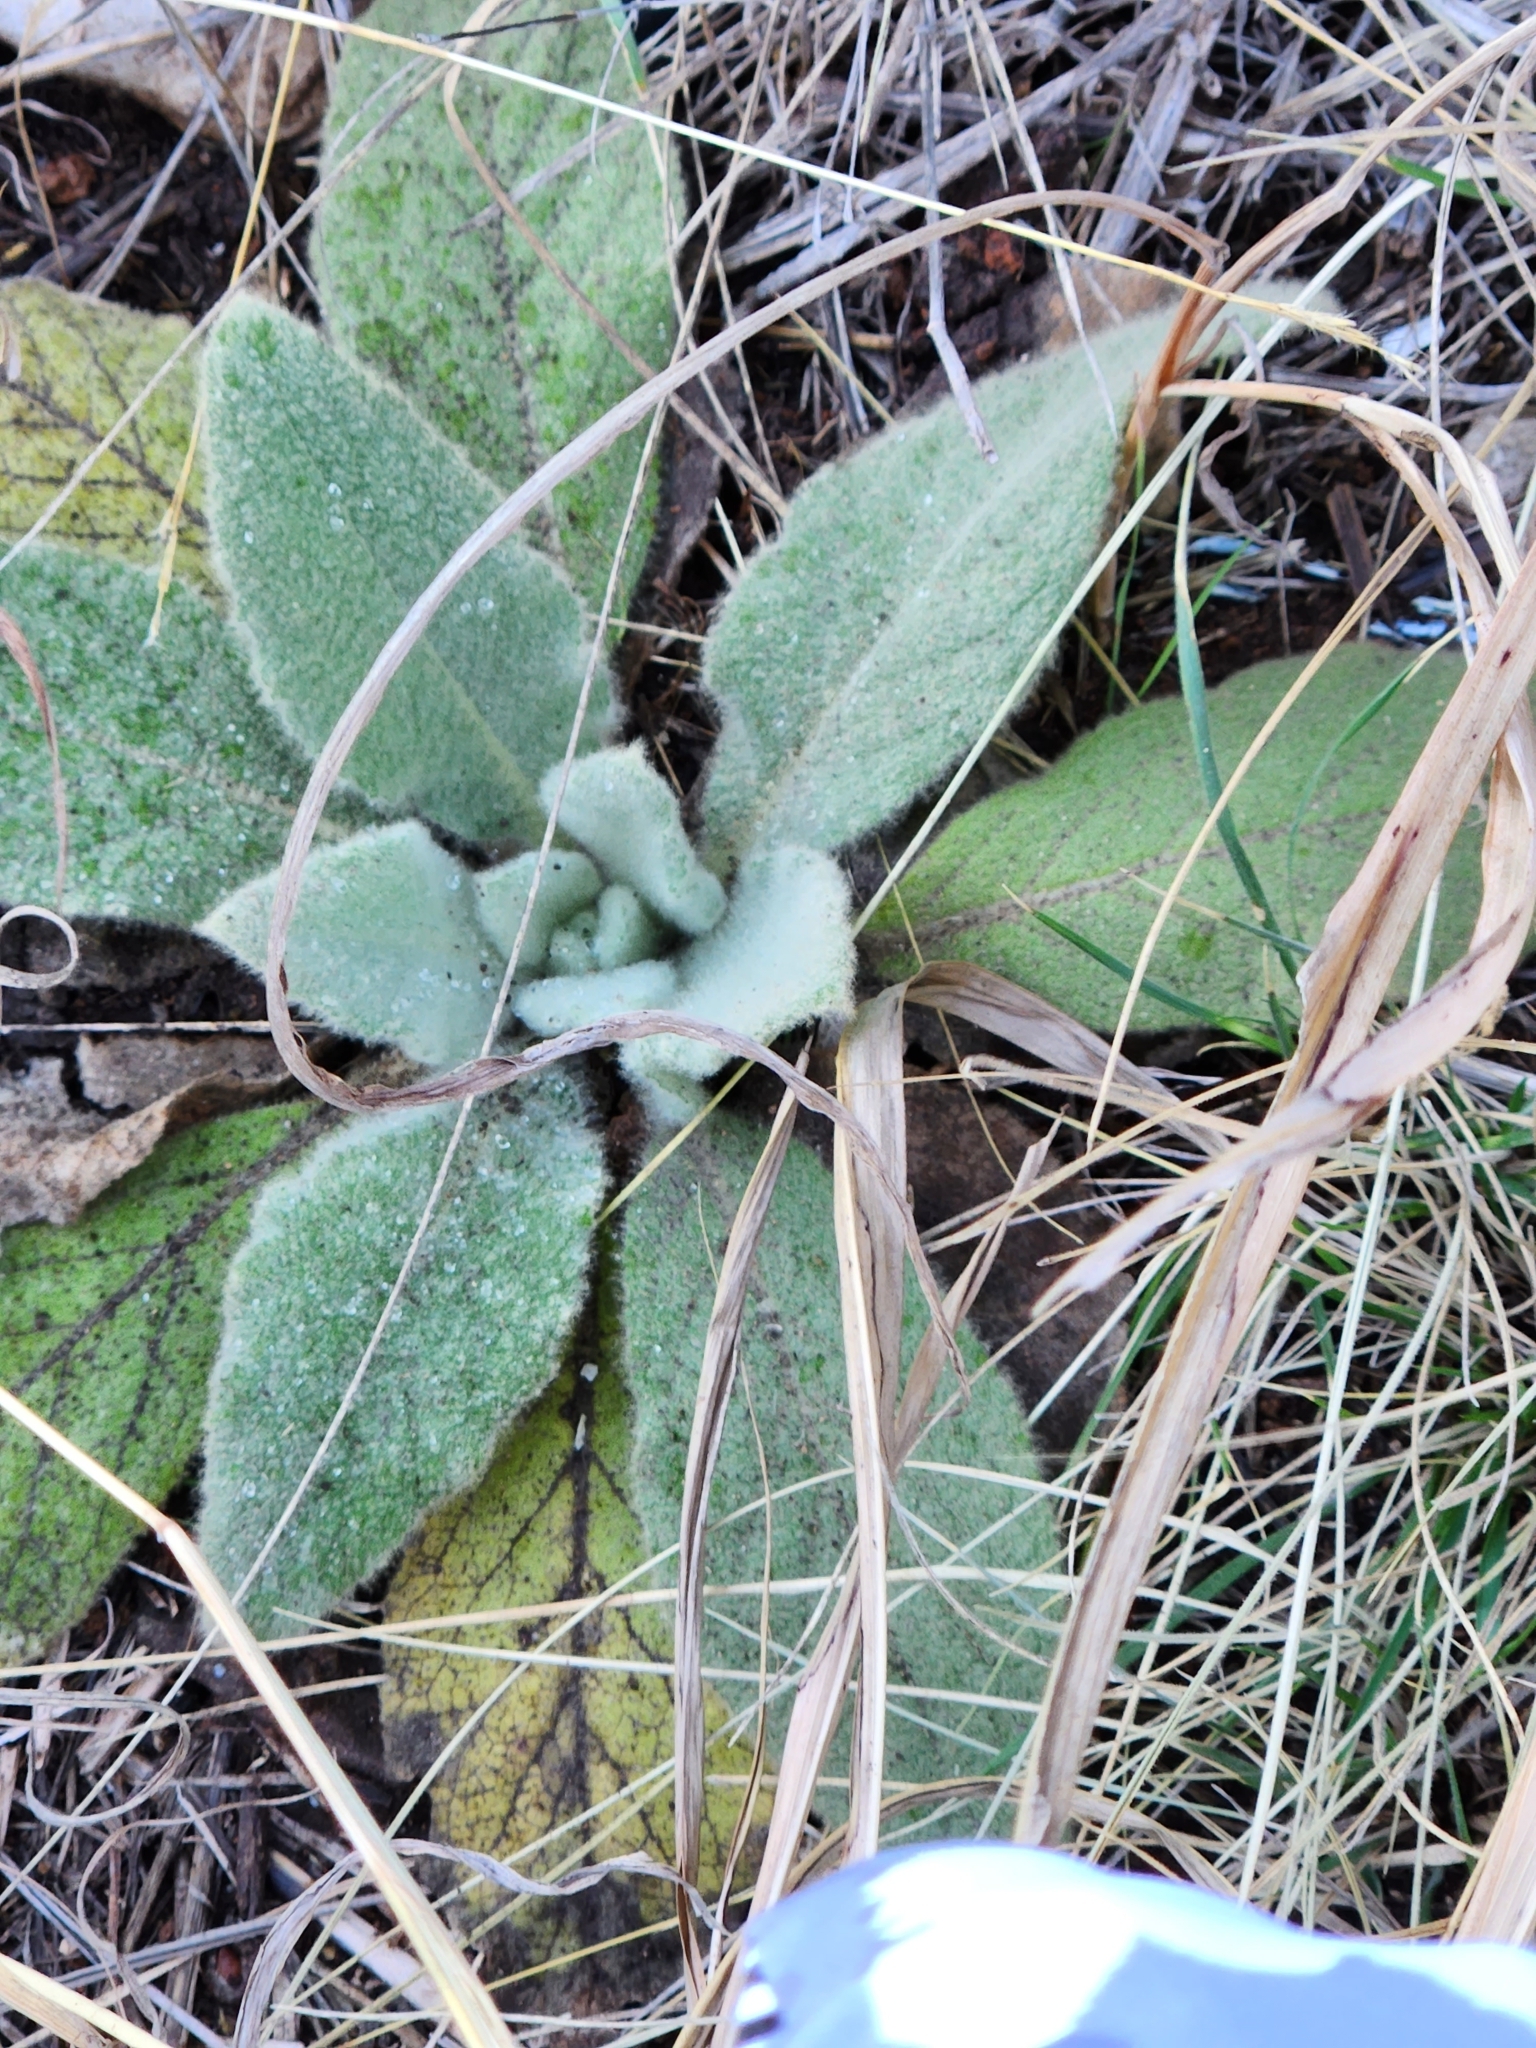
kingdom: Plantae
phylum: Tracheophyta
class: Magnoliopsida
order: Lamiales
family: Scrophulariaceae
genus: Verbascum
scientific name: Verbascum thapsus
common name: Common mullein
